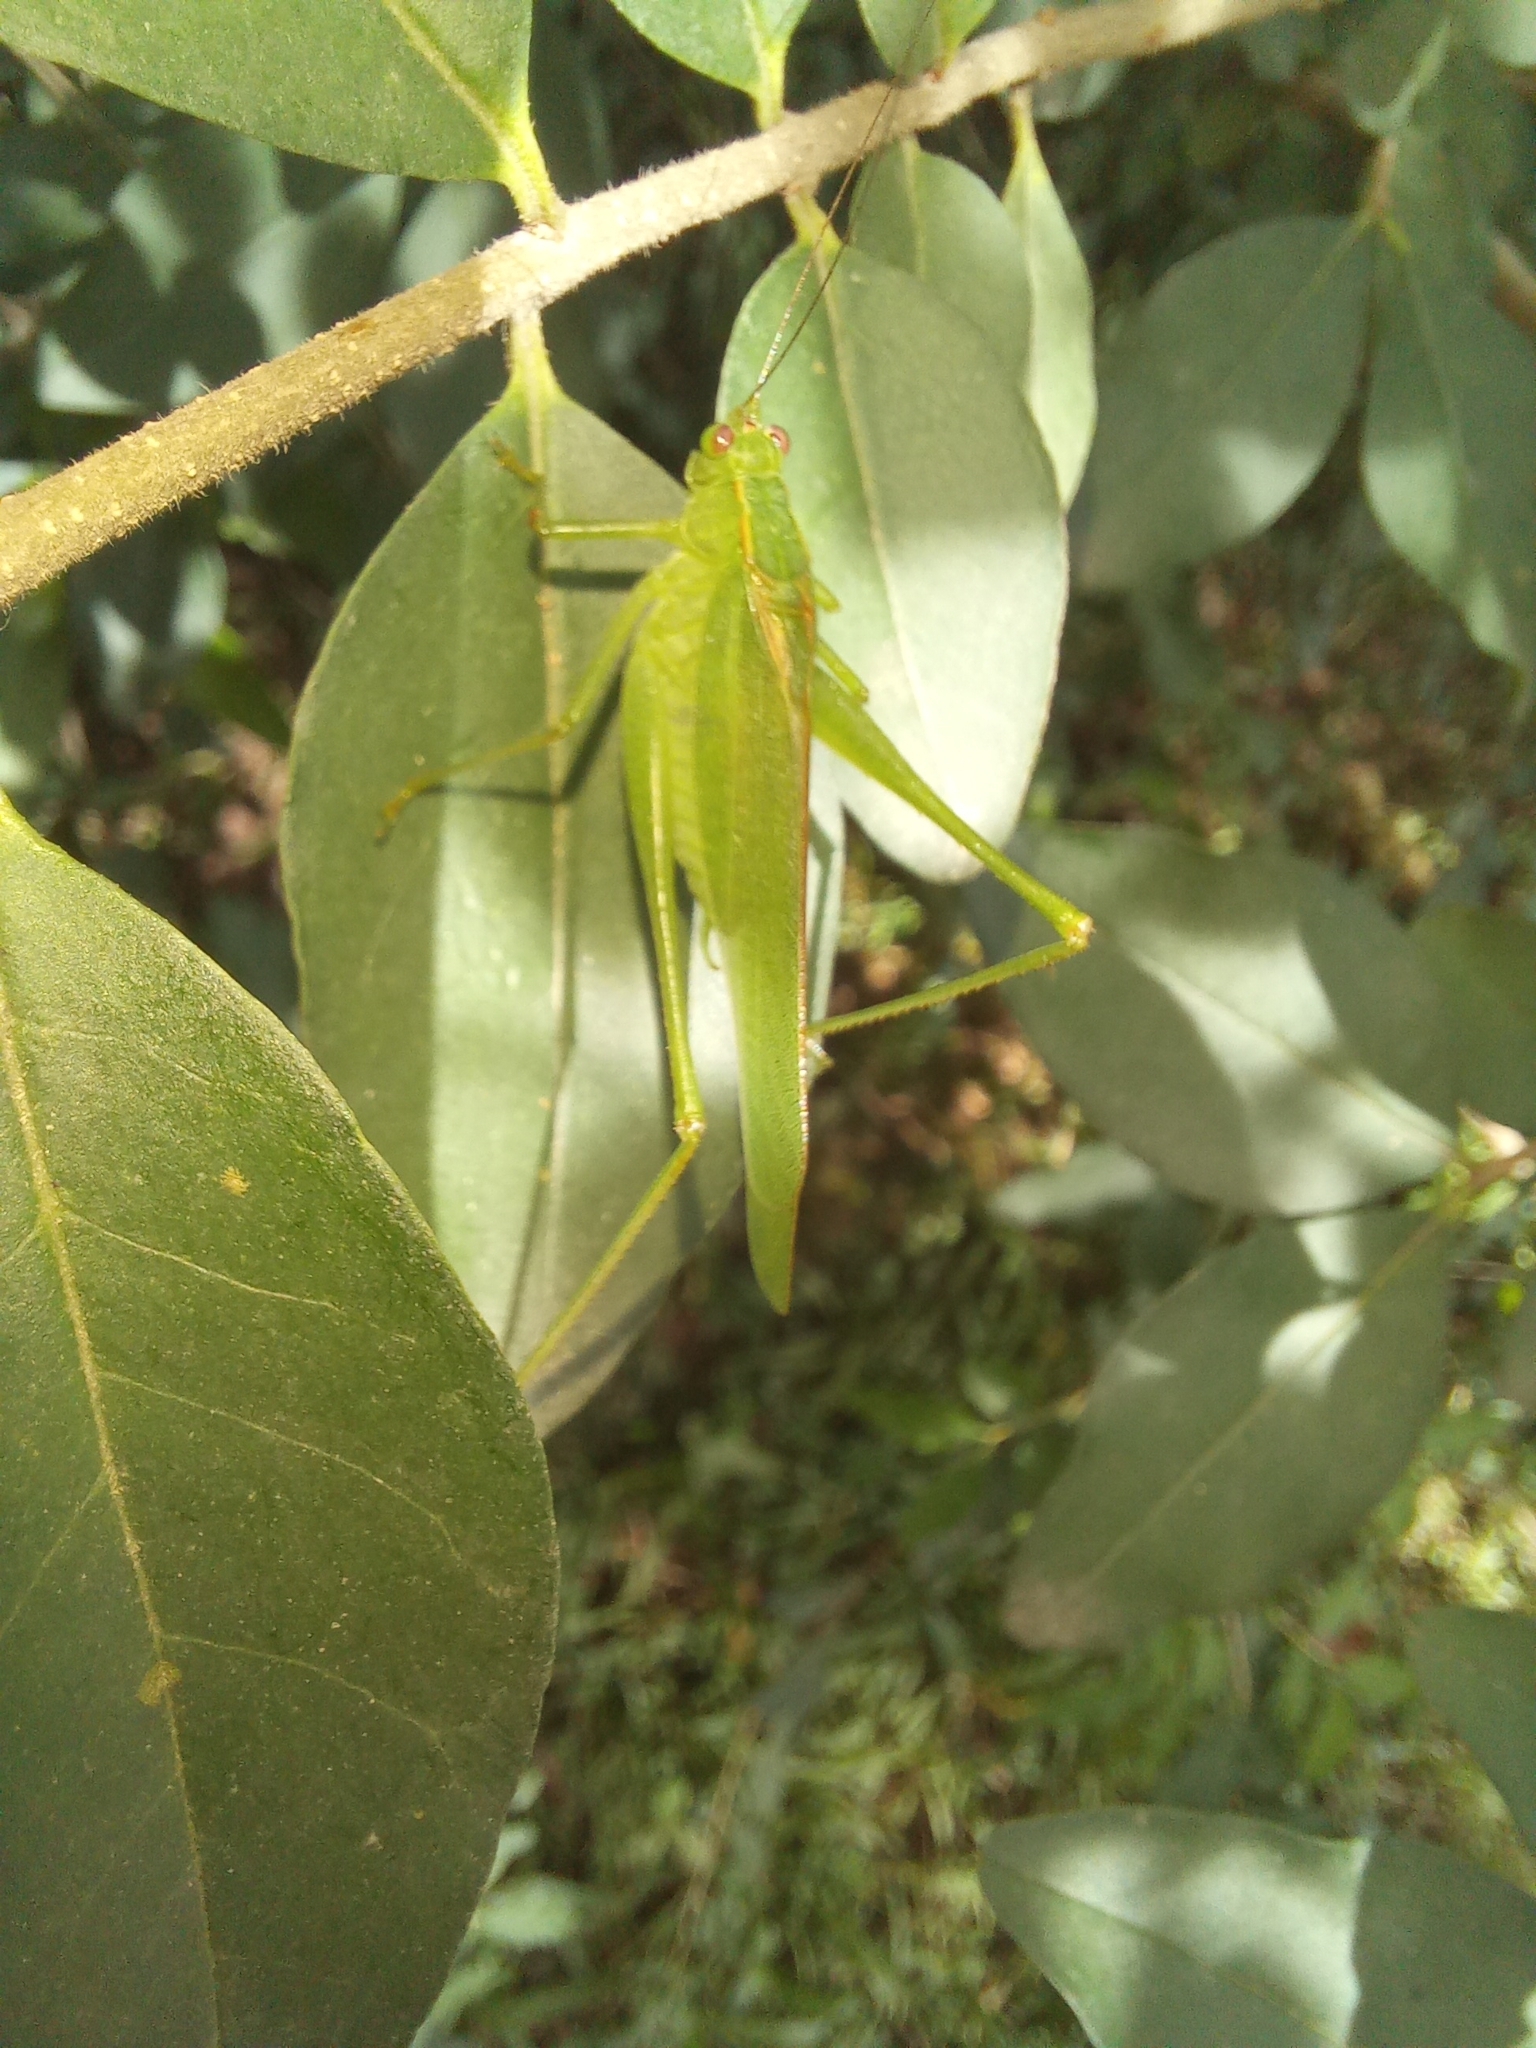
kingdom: Animalia
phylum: Arthropoda
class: Insecta
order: Orthoptera
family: Tettigoniidae
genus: Ligocatinus
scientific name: Ligocatinus spinatus
